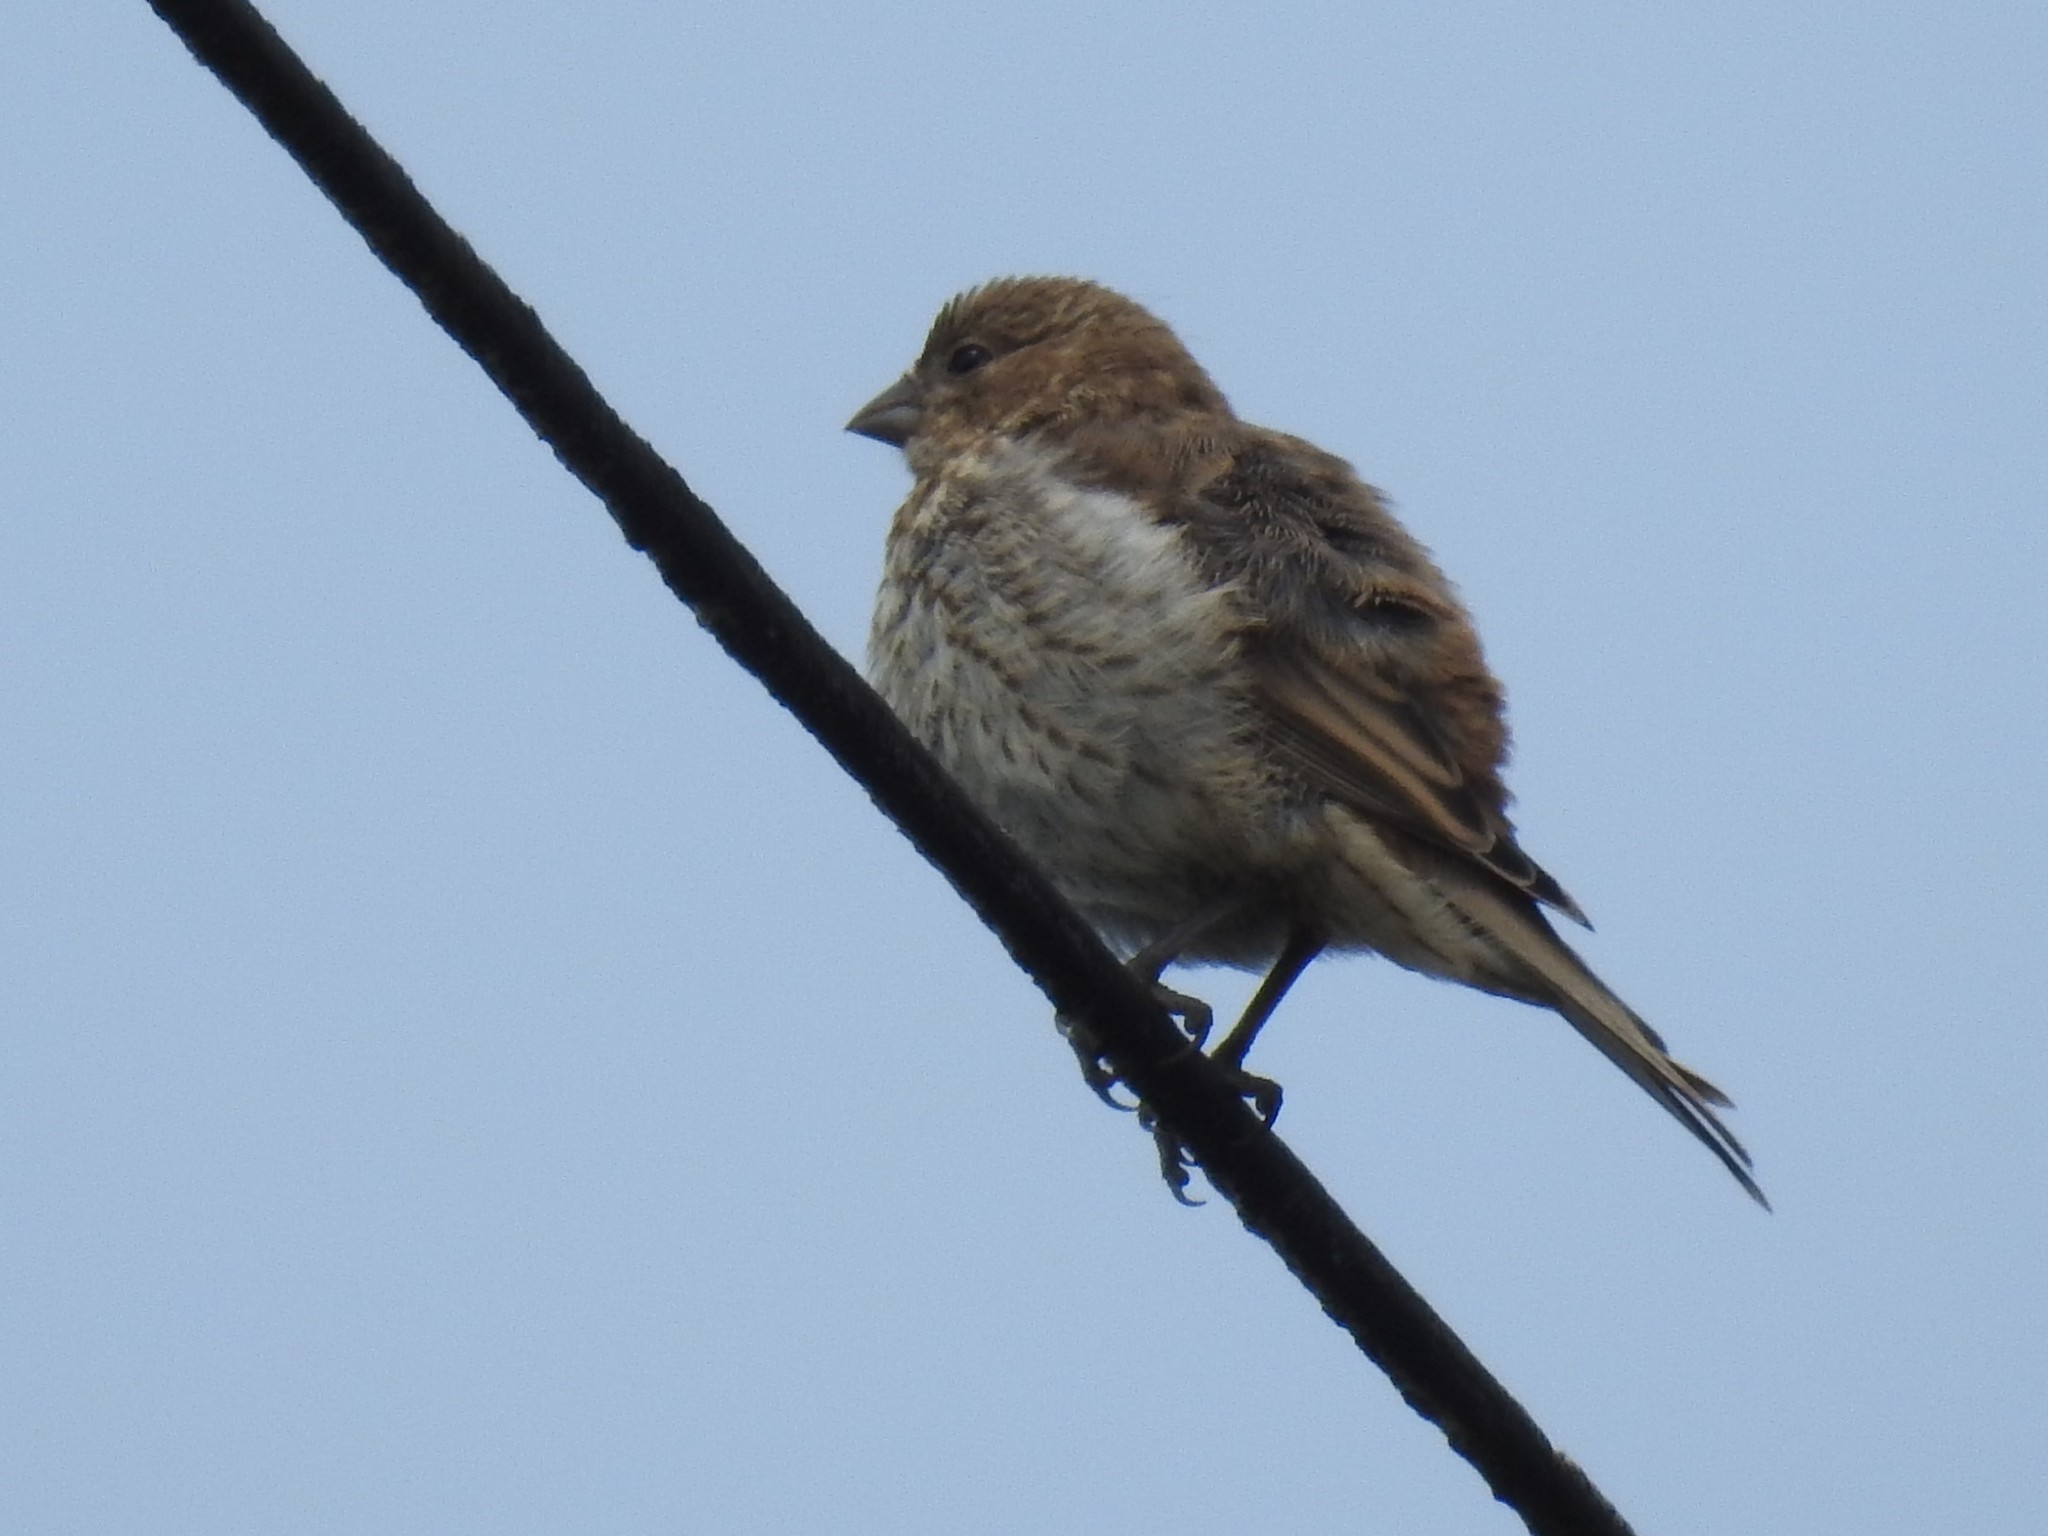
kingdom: Animalia
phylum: Chordata
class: Aves
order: Passeriformes
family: Fringillidae
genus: Haemorhous
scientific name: Haemorhous mexicanus
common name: House finch
